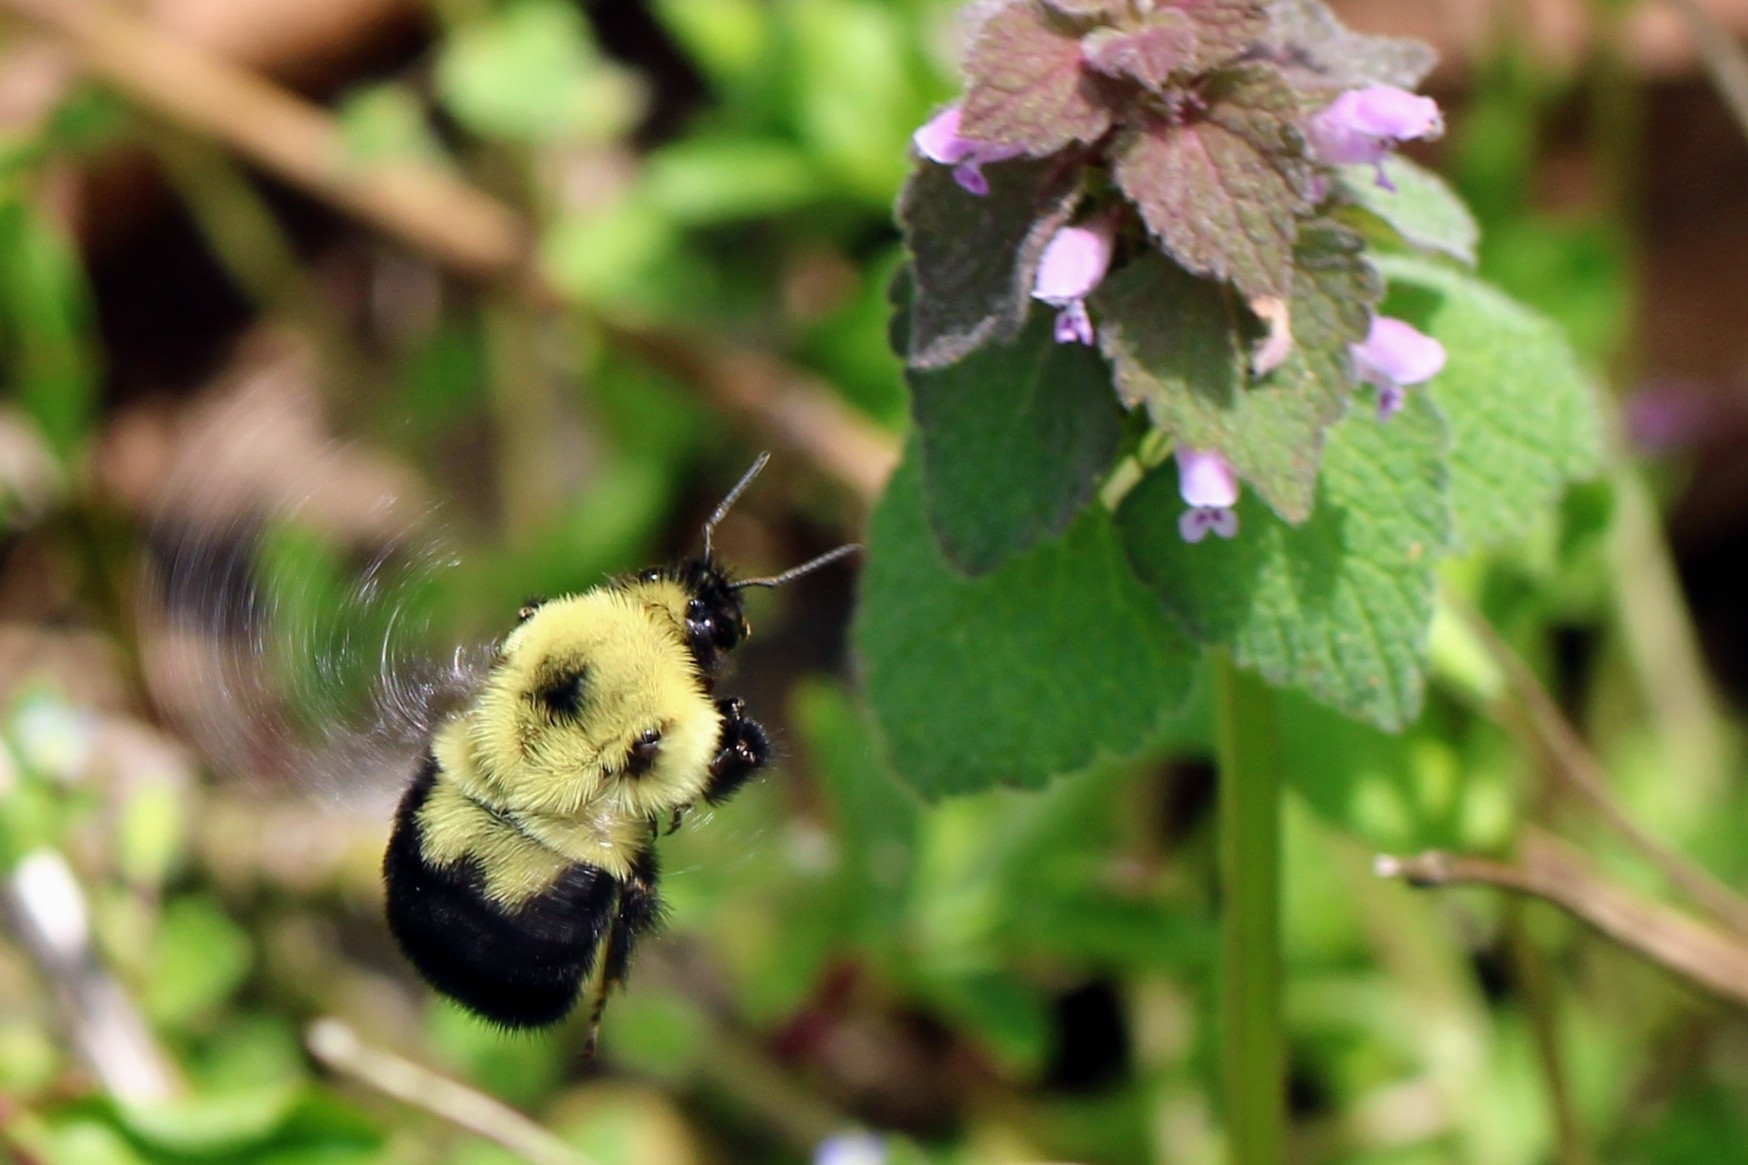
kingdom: Animalia
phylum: Arthropoda
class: Insecta
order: Hymenoptera
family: Apidae
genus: Bombus
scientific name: Bombus bimaculatus
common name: Two-spotted bumble bee
